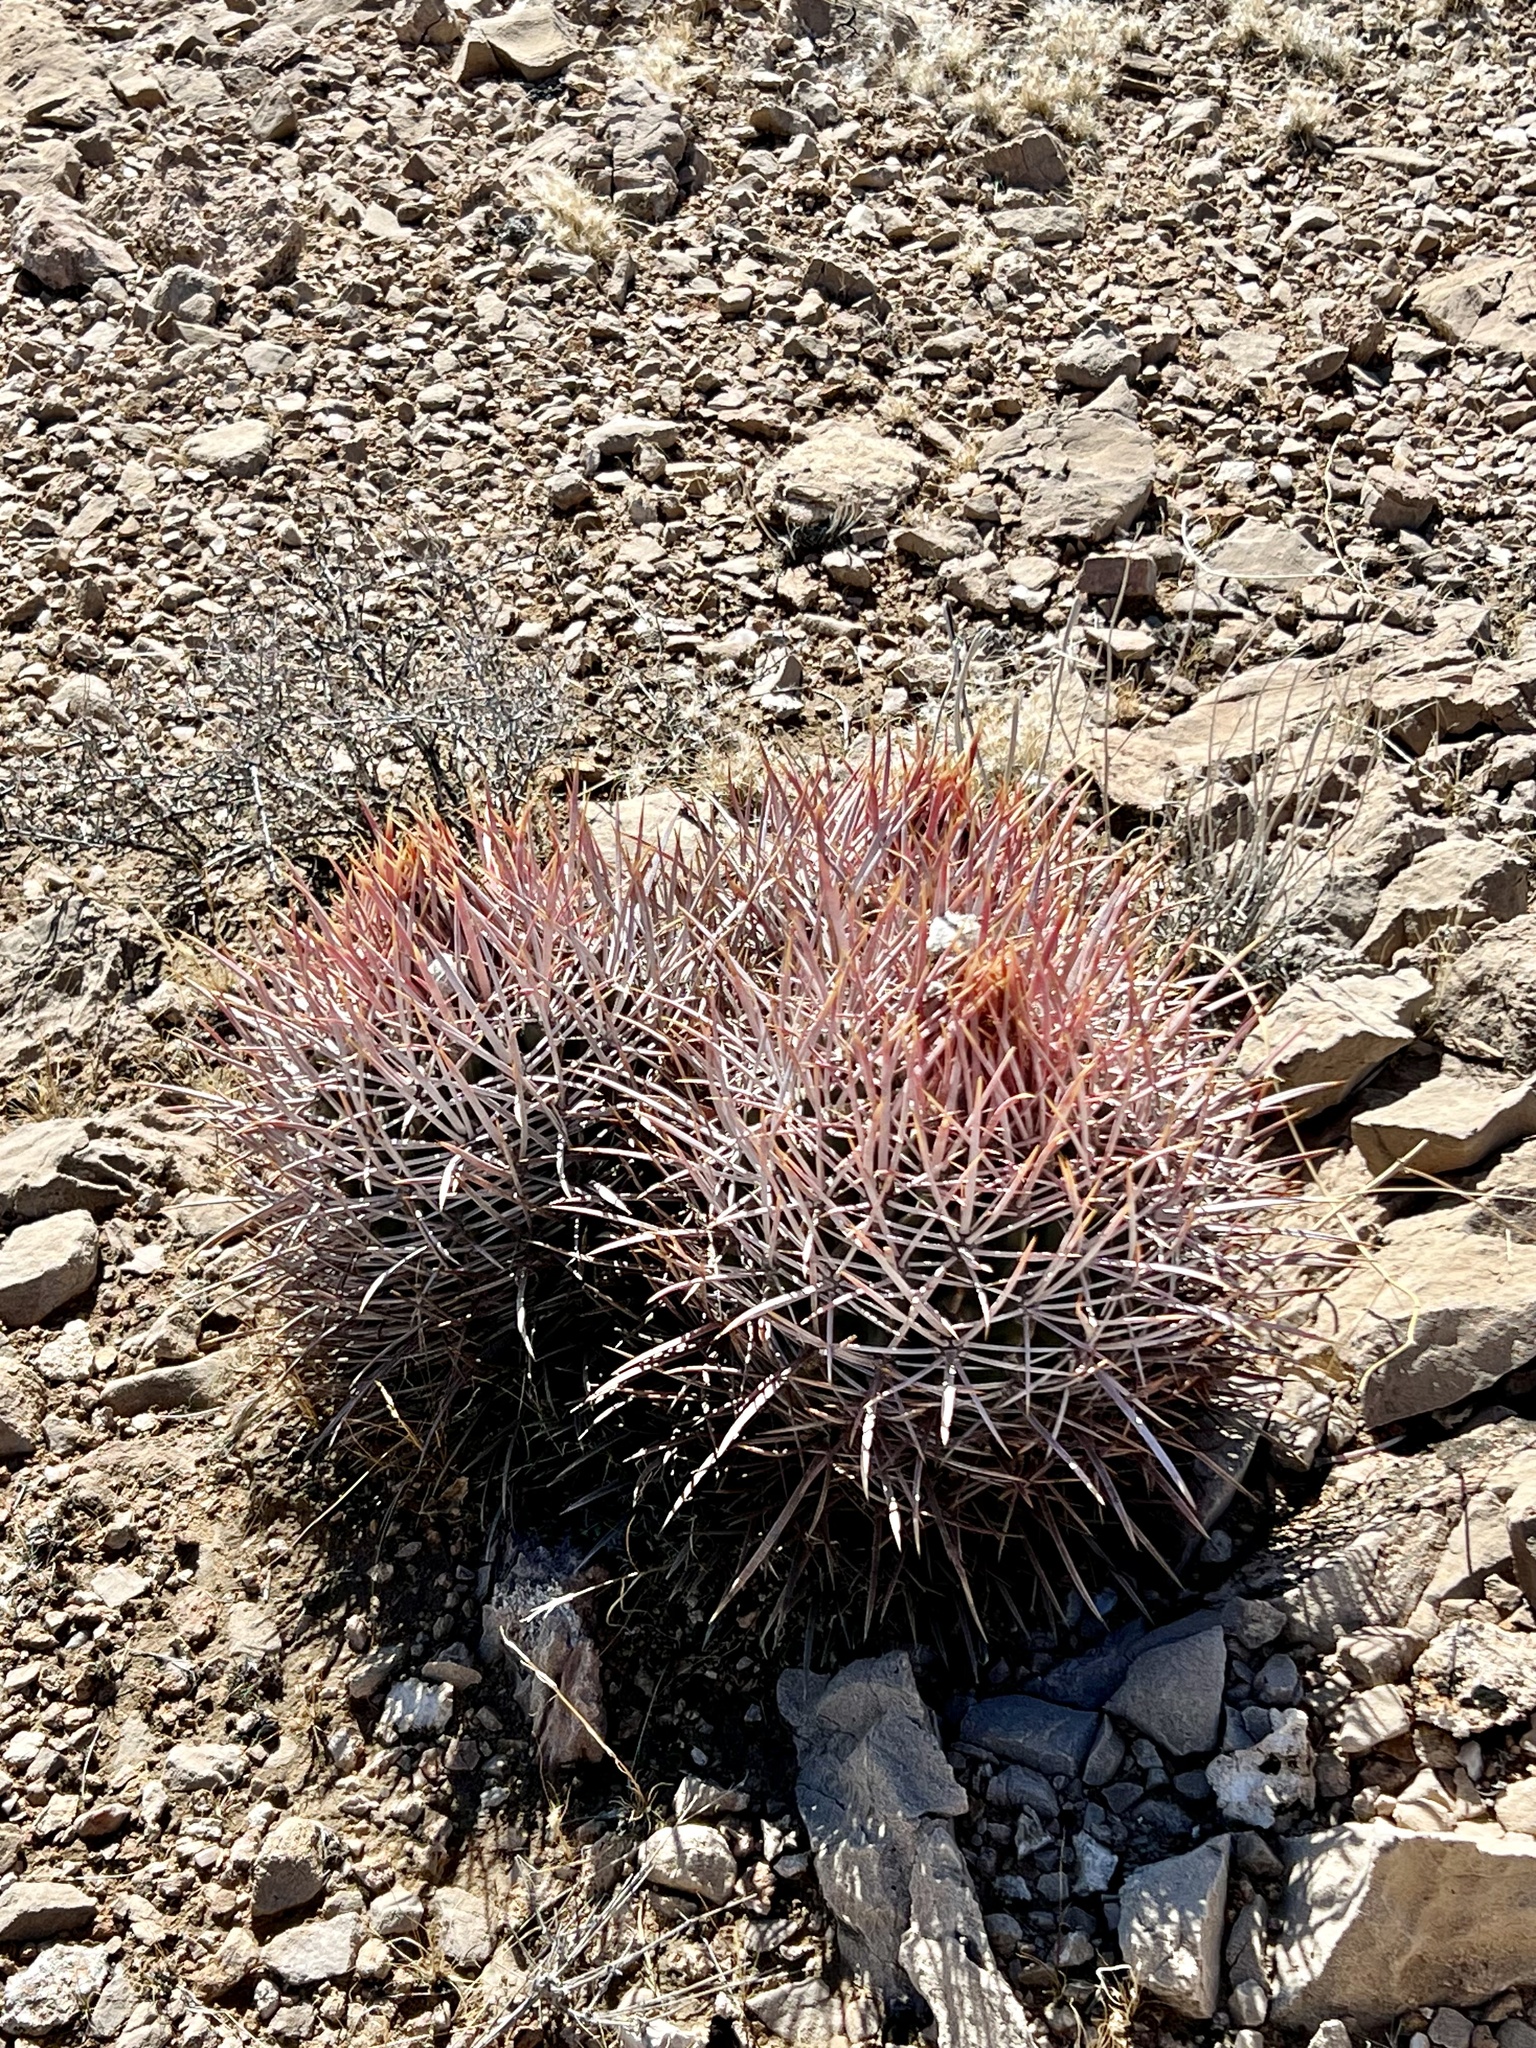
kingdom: Plantae
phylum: Tracheophyta
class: Magnoliopsida
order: Caryophyllales
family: Cactaceae
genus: Echinocactus
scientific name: Echinocactus polycephalus
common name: Cottontop cactus
